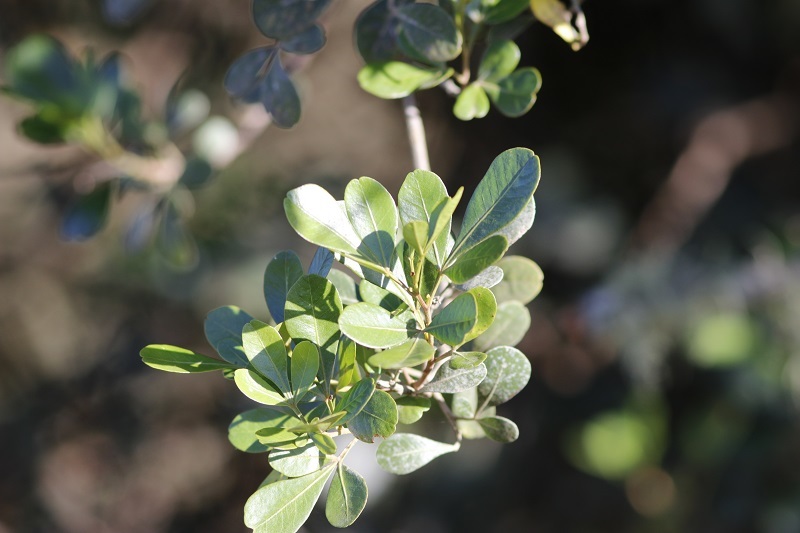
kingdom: Plantae
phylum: Tracheophyta
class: Magnoliopsida
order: Sapindales
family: Anacardiaceae
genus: Searsia
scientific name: Searsia pallens
